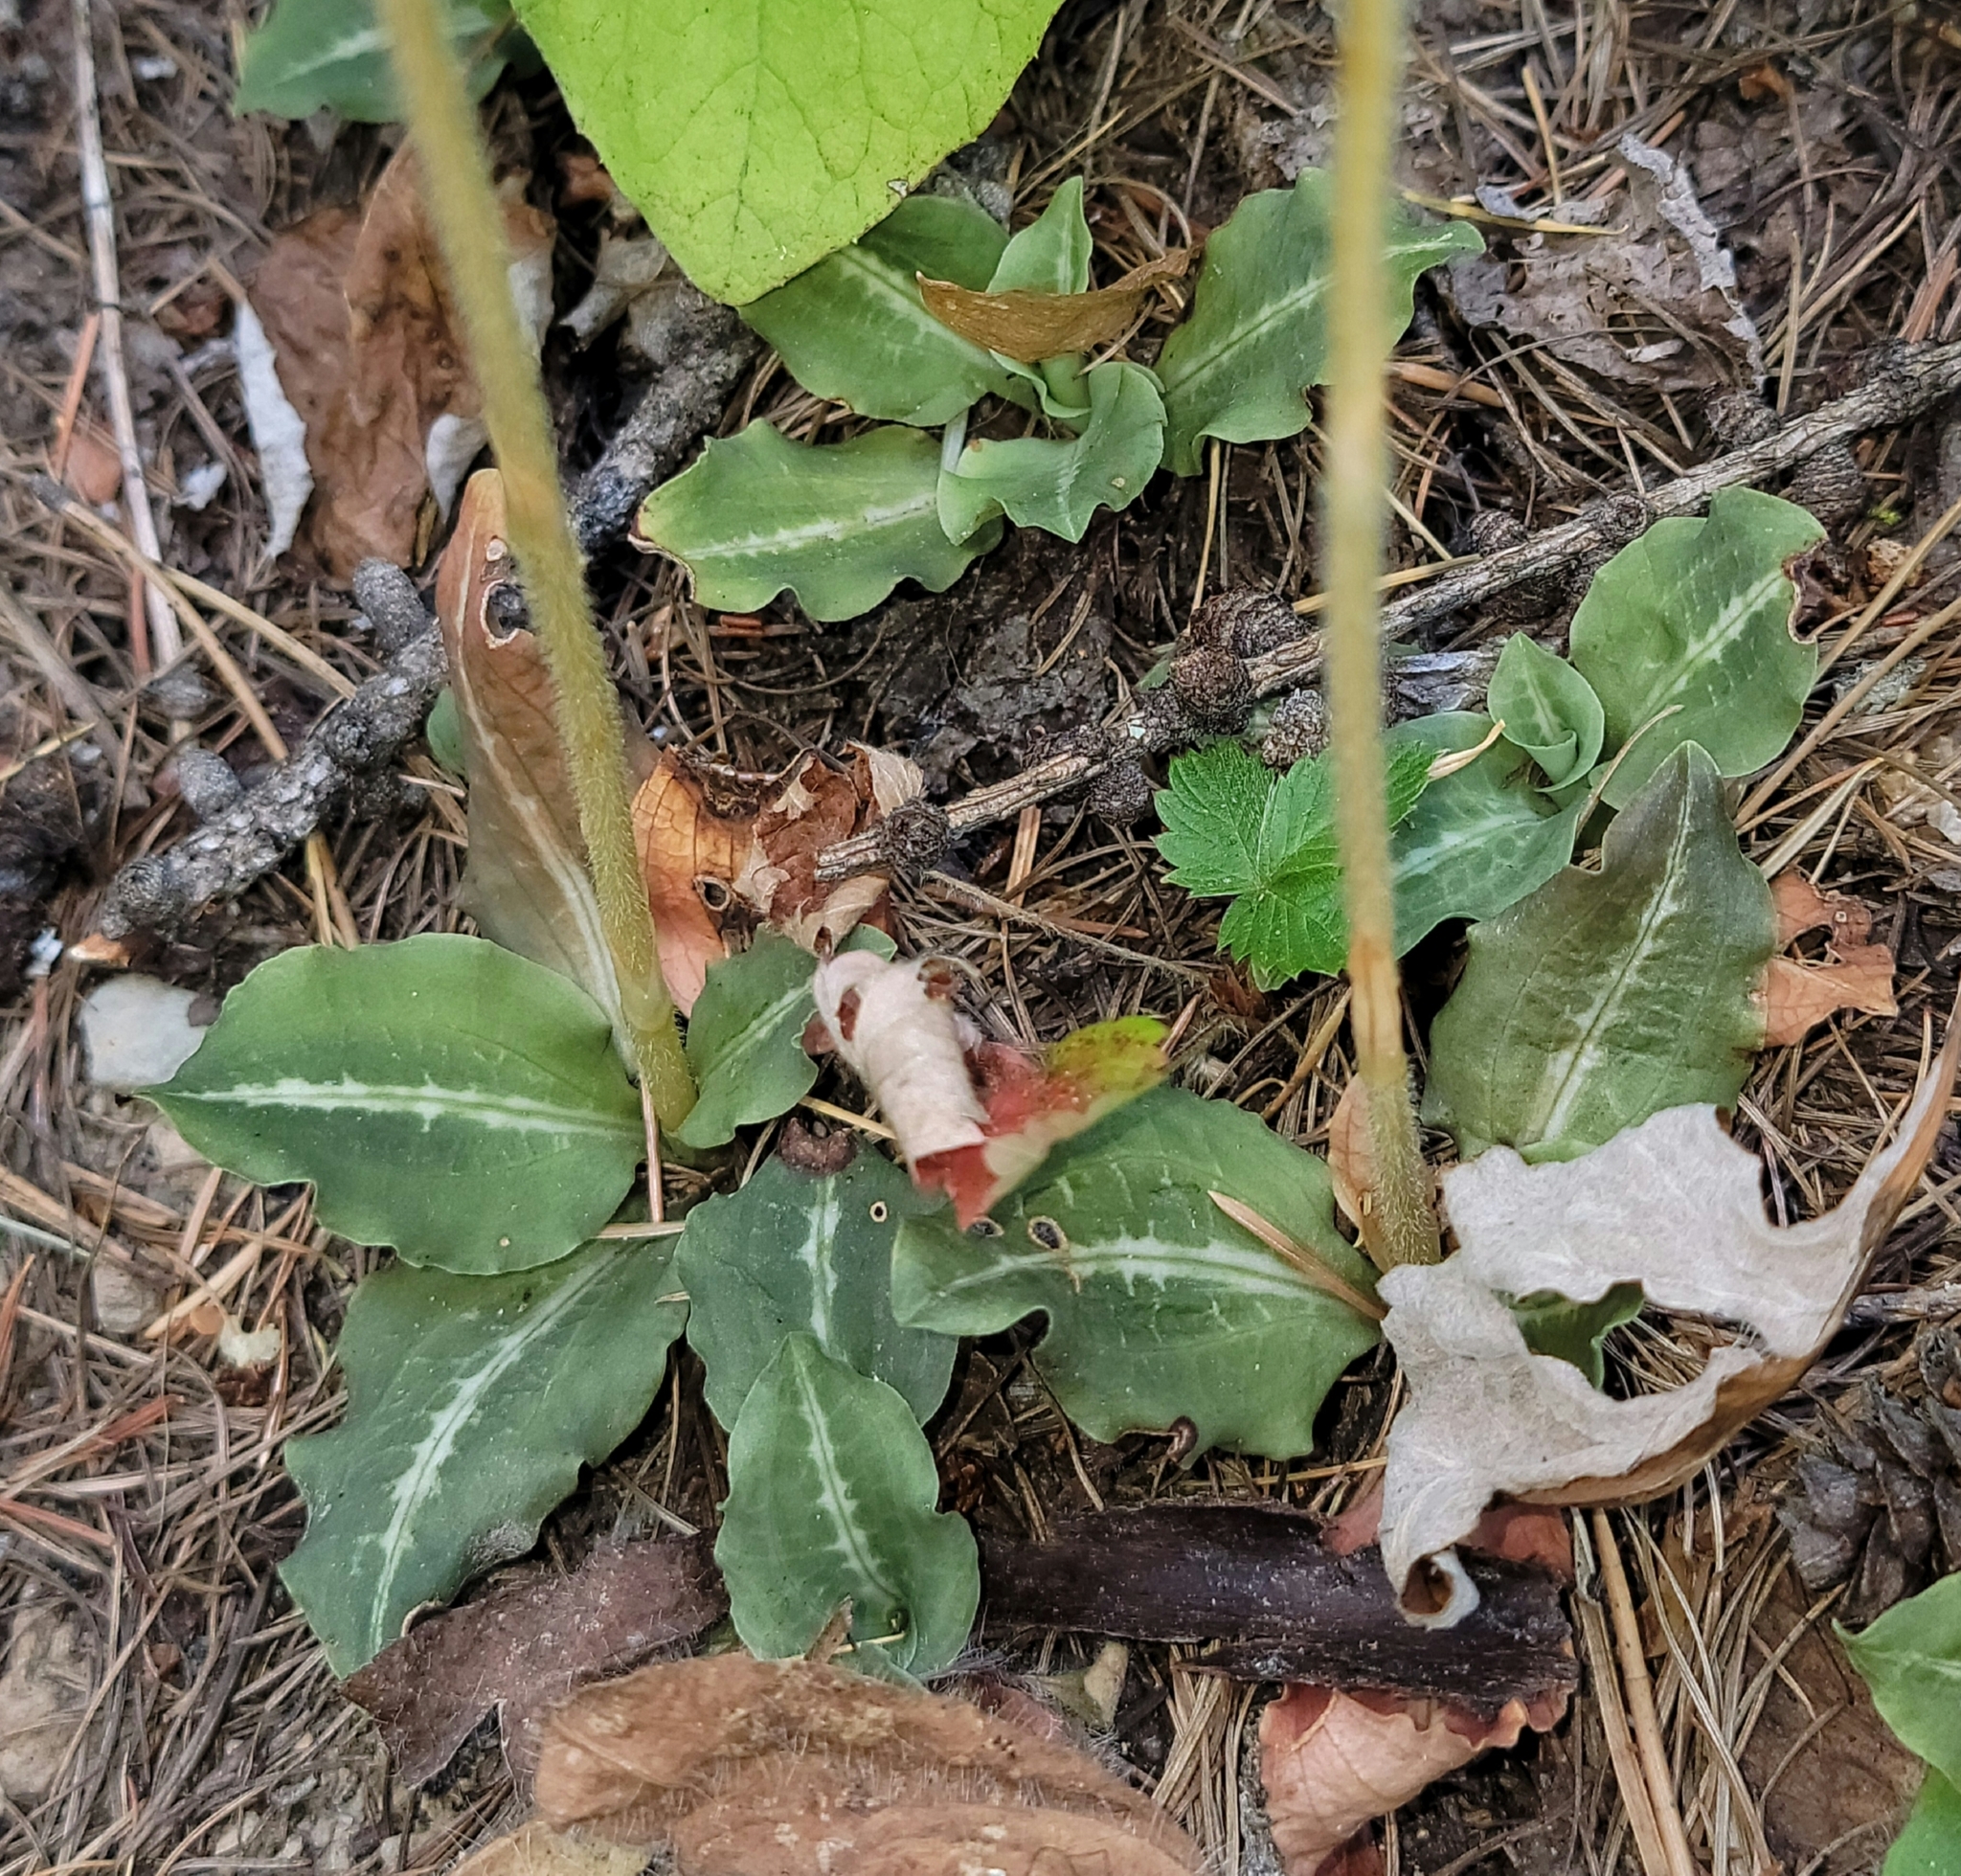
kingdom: Plantae
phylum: Tracheophyta
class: Liliopsida
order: Asparagales
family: Orchidaceae
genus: Goodyera
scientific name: Goodyera oblongifolia
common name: Giant rattlesnake-plantain
